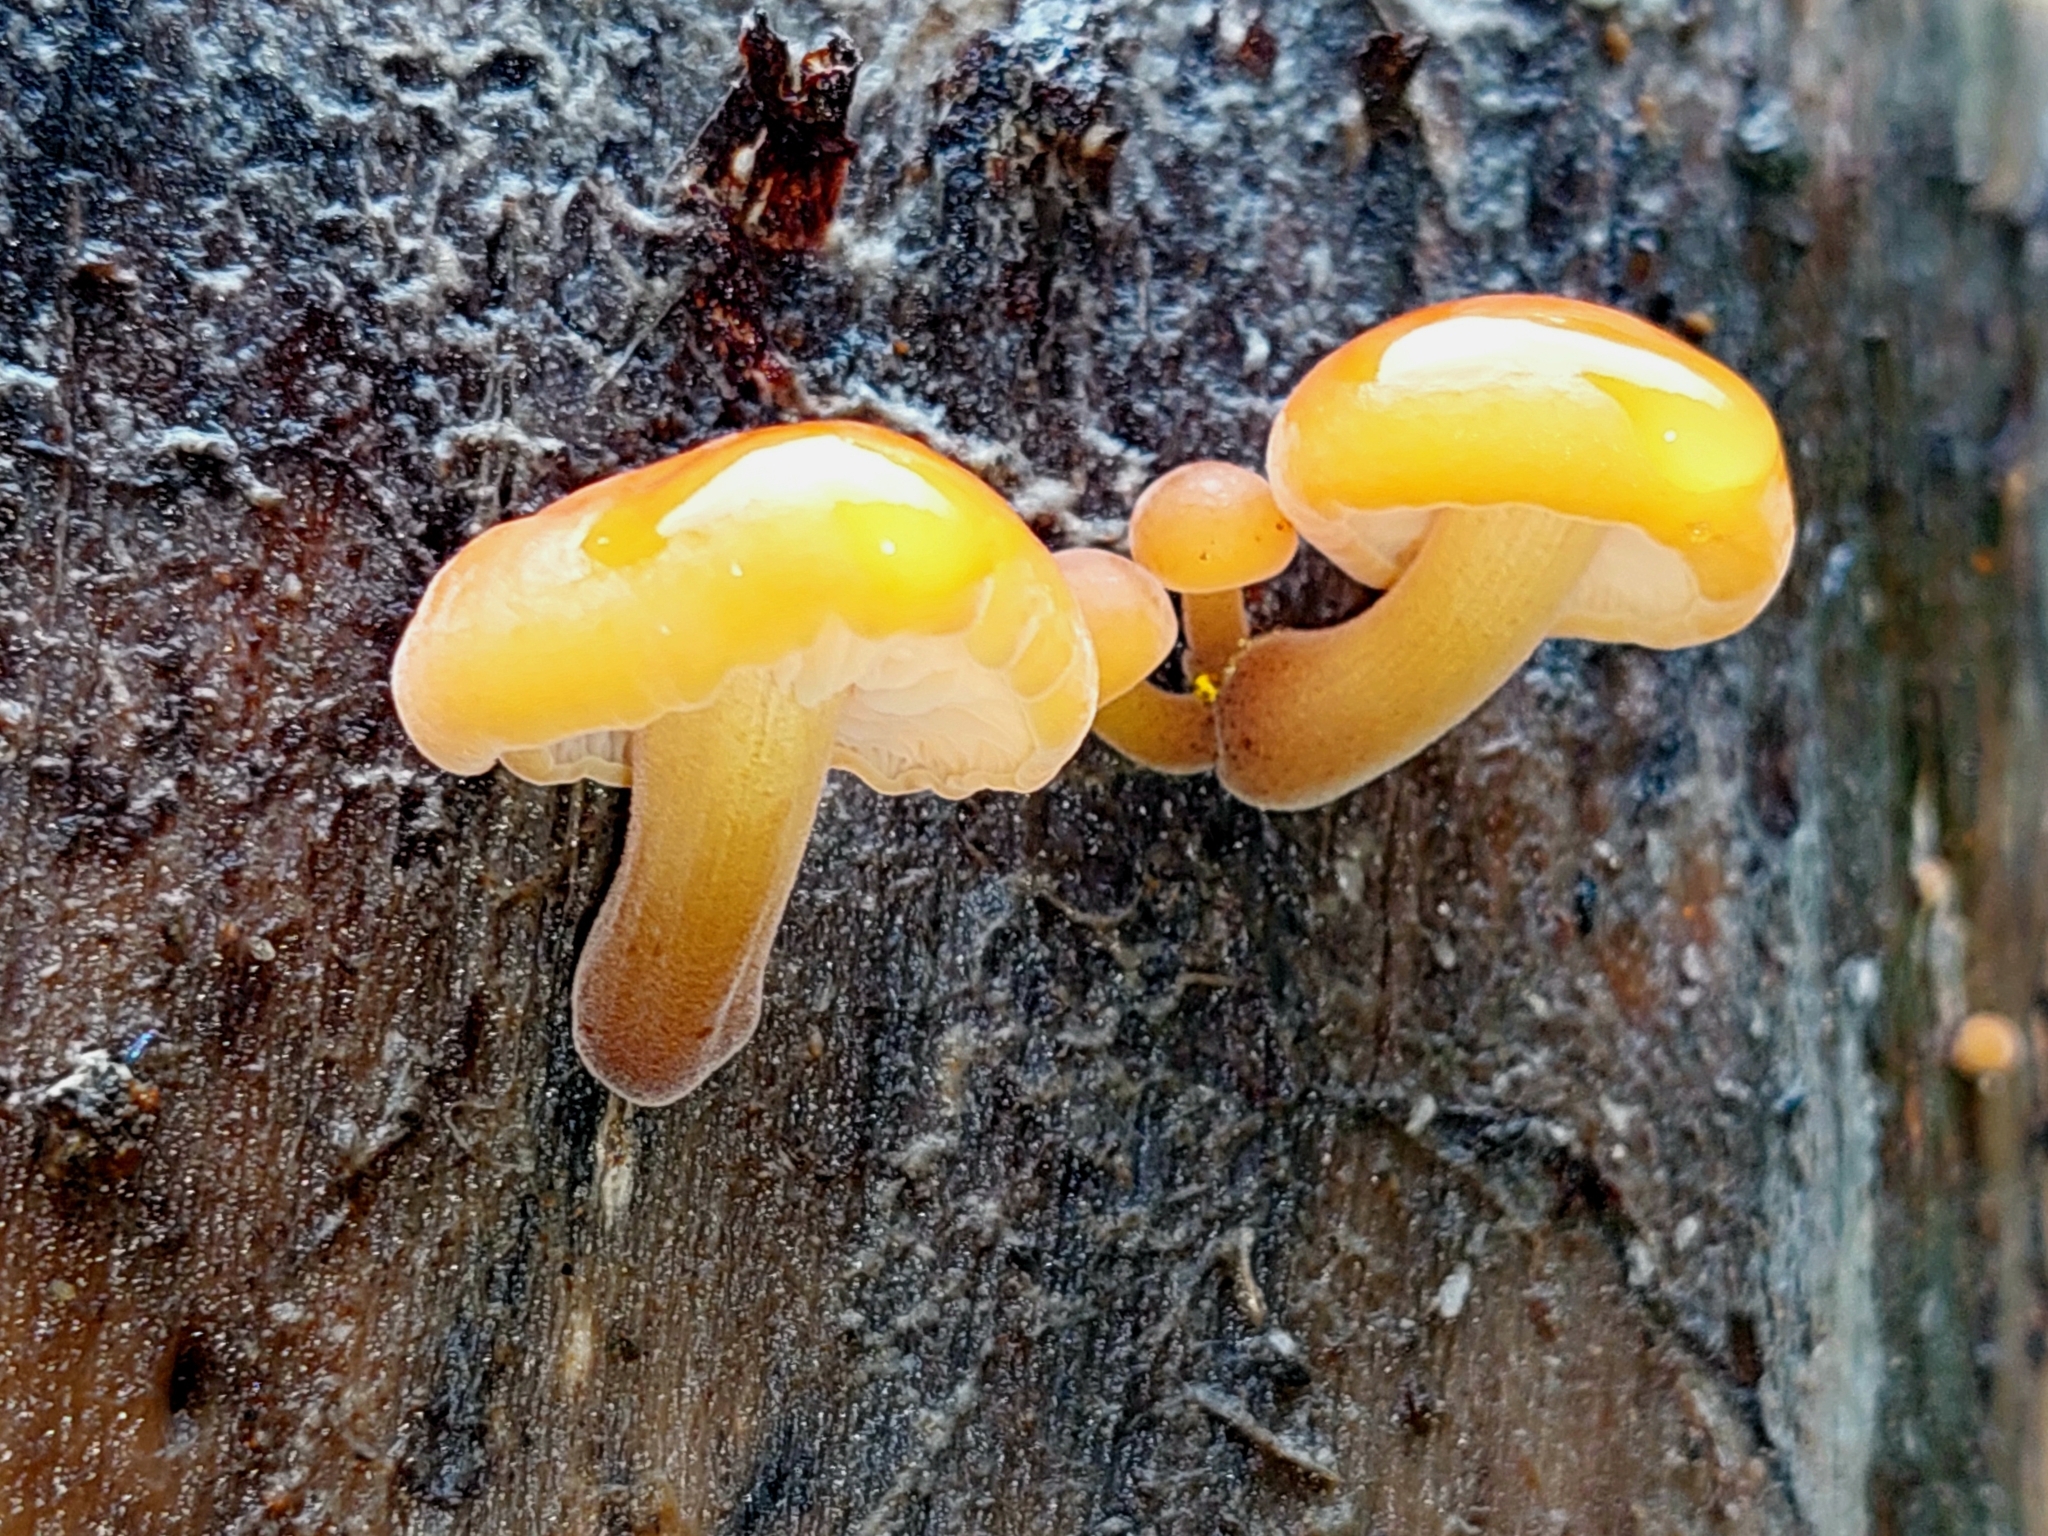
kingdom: Fungi
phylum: Basidiomycota
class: Agaricomycetes
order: Agaricales
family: Physalacriaceae
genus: Flammulina
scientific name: Flammulina velutipes
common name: Velvet shank
